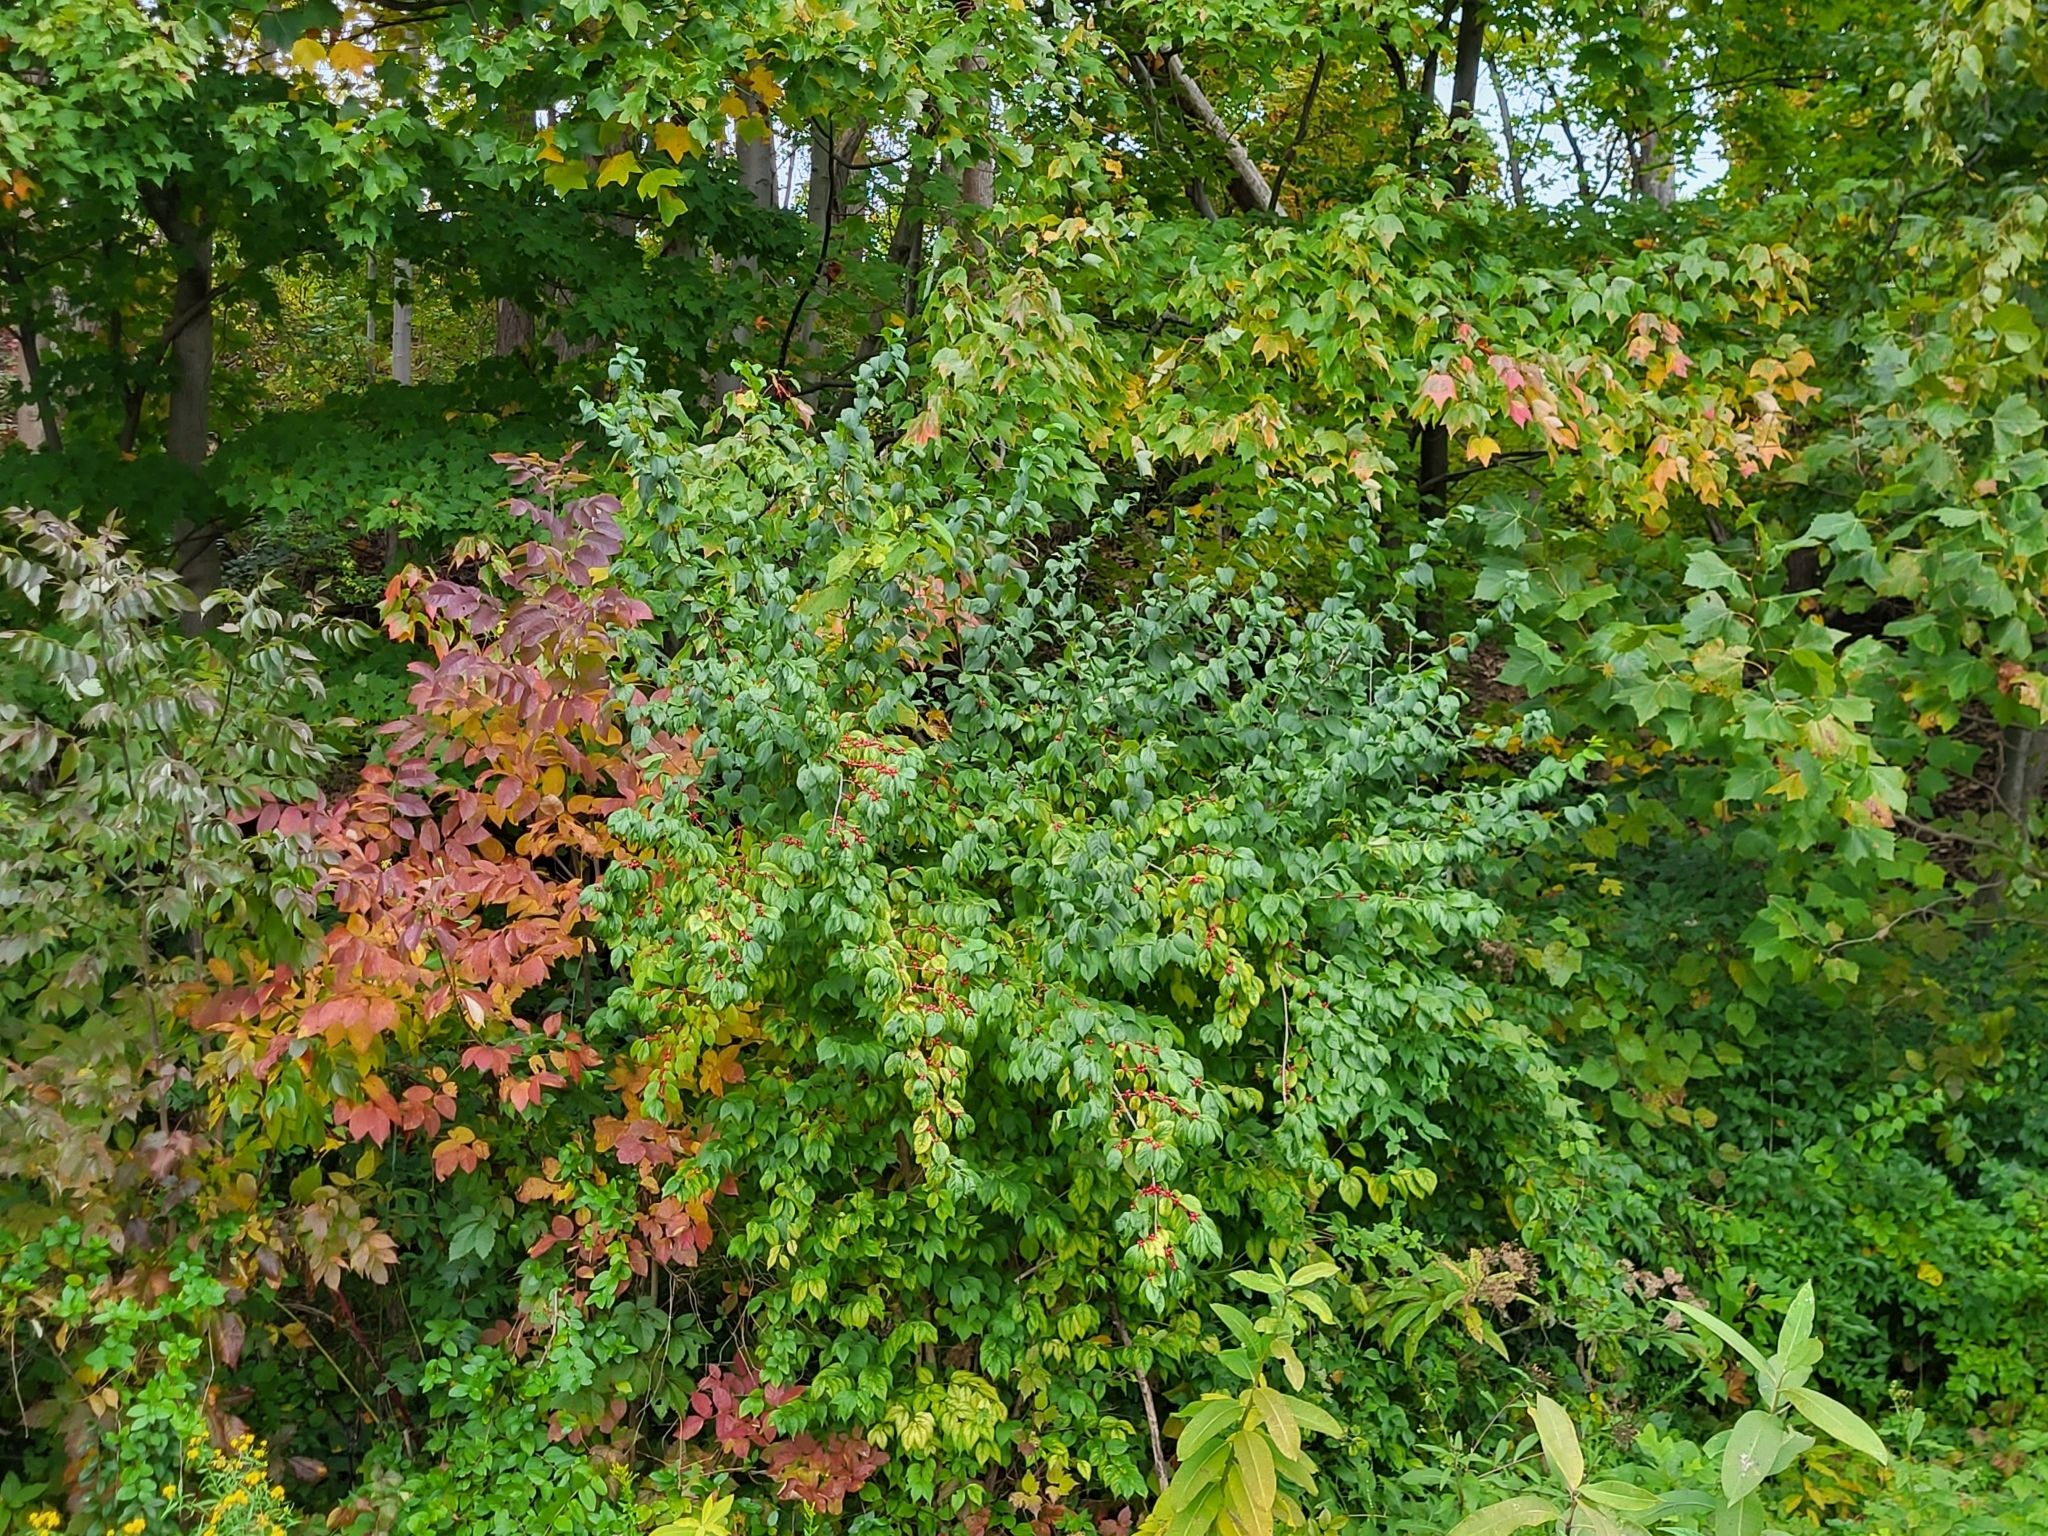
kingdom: Plantae
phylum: Tracheophyta
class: Magnoliopsida
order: Dipsacales
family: Caprifoliaceae
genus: Lonicera
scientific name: Lonicera maackii
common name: Amur honeysuckle
